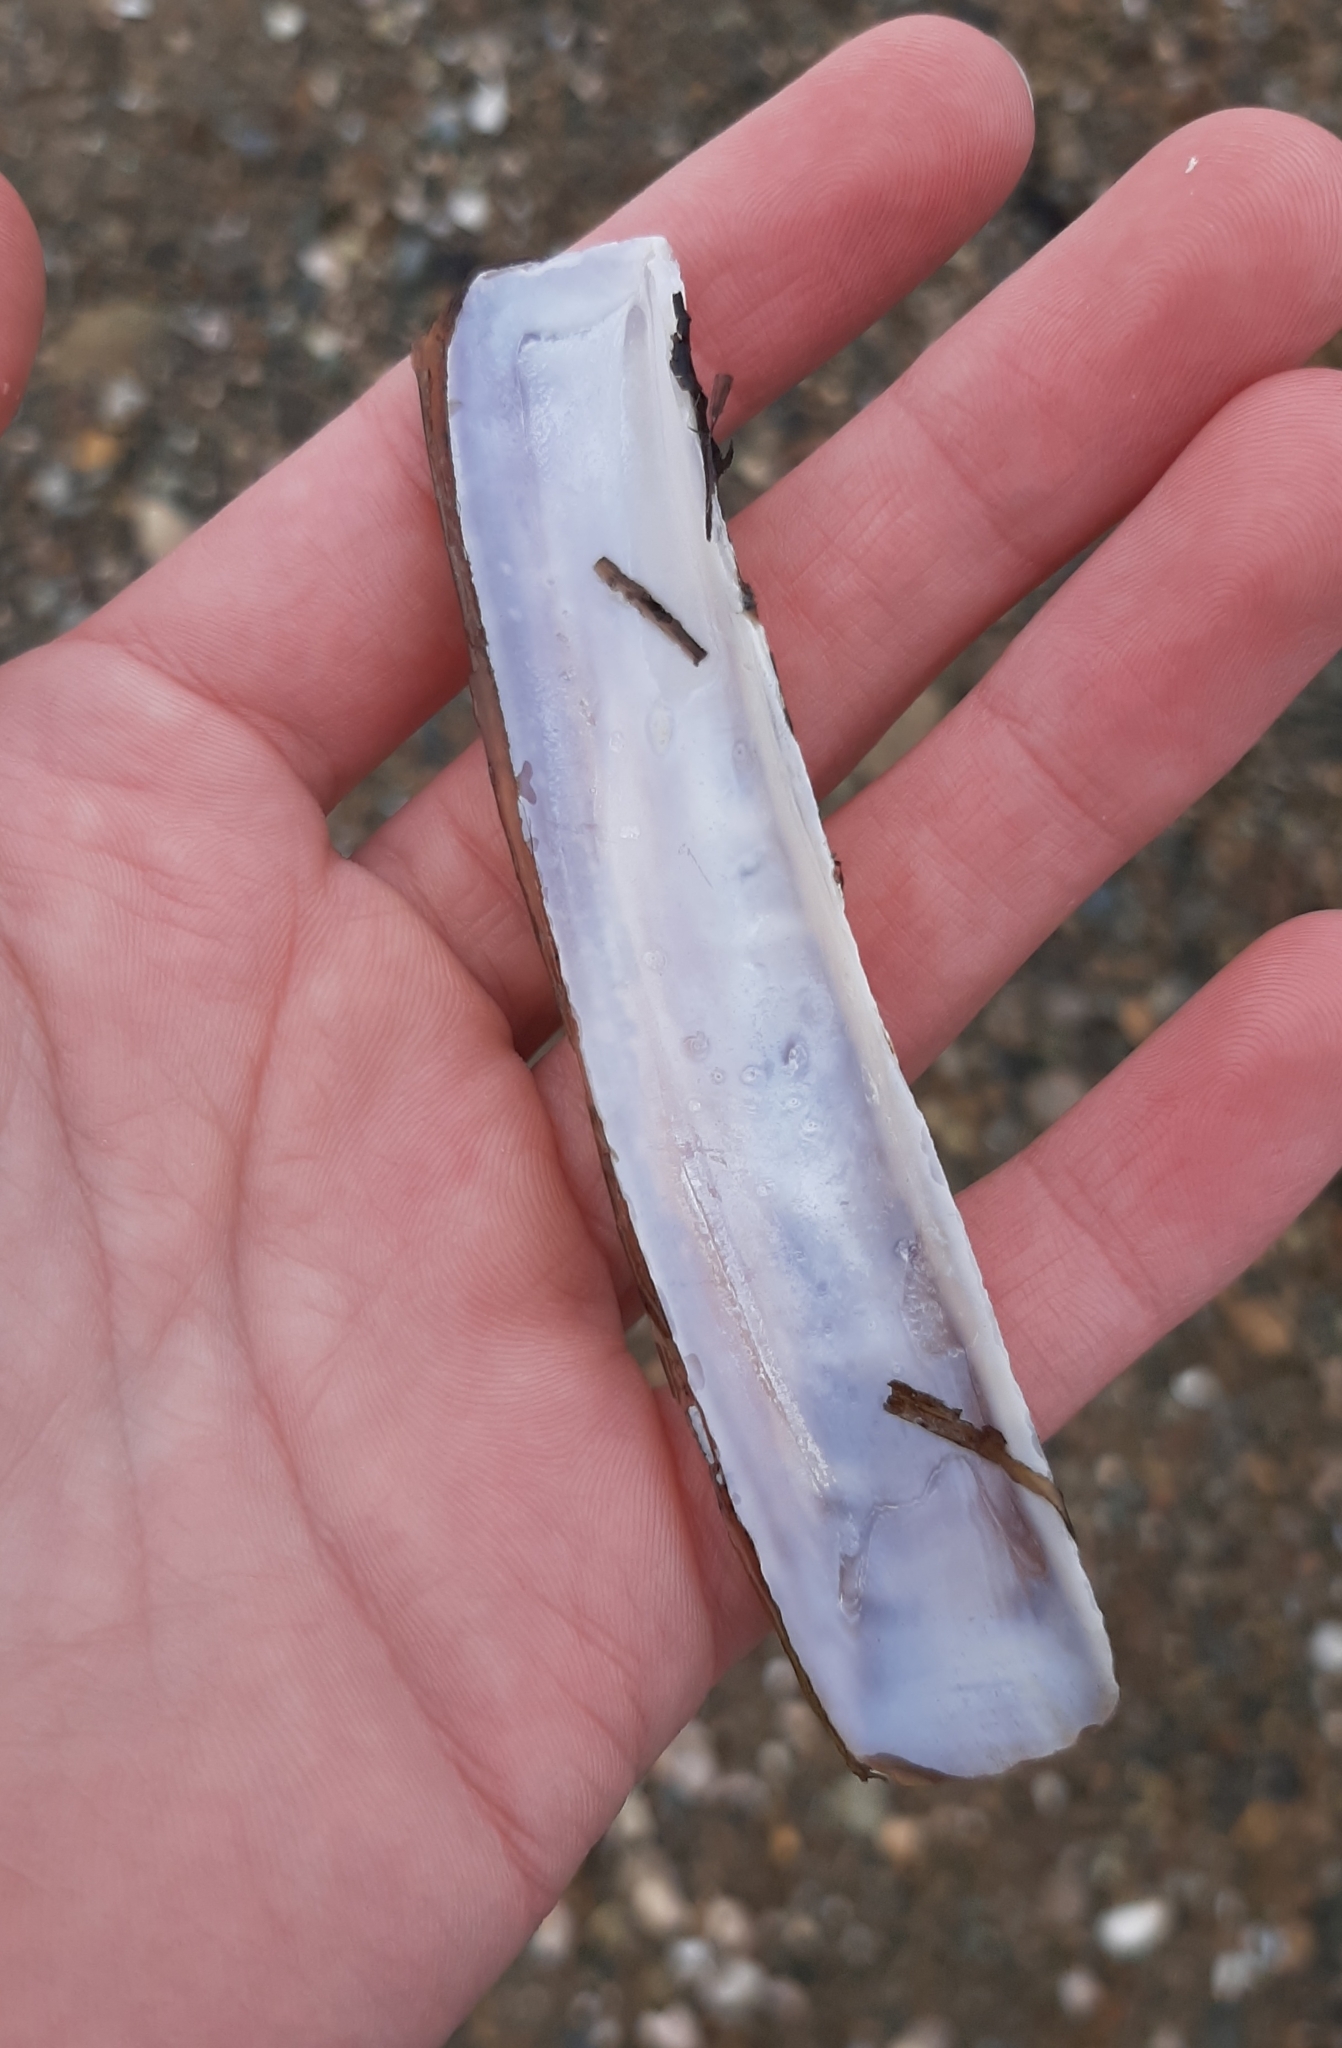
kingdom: Animalia
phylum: Mollusca
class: Bivalvia
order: Adapedonta
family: Pharidae
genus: Ensis
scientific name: Ensis leei
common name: American jack knife clam
